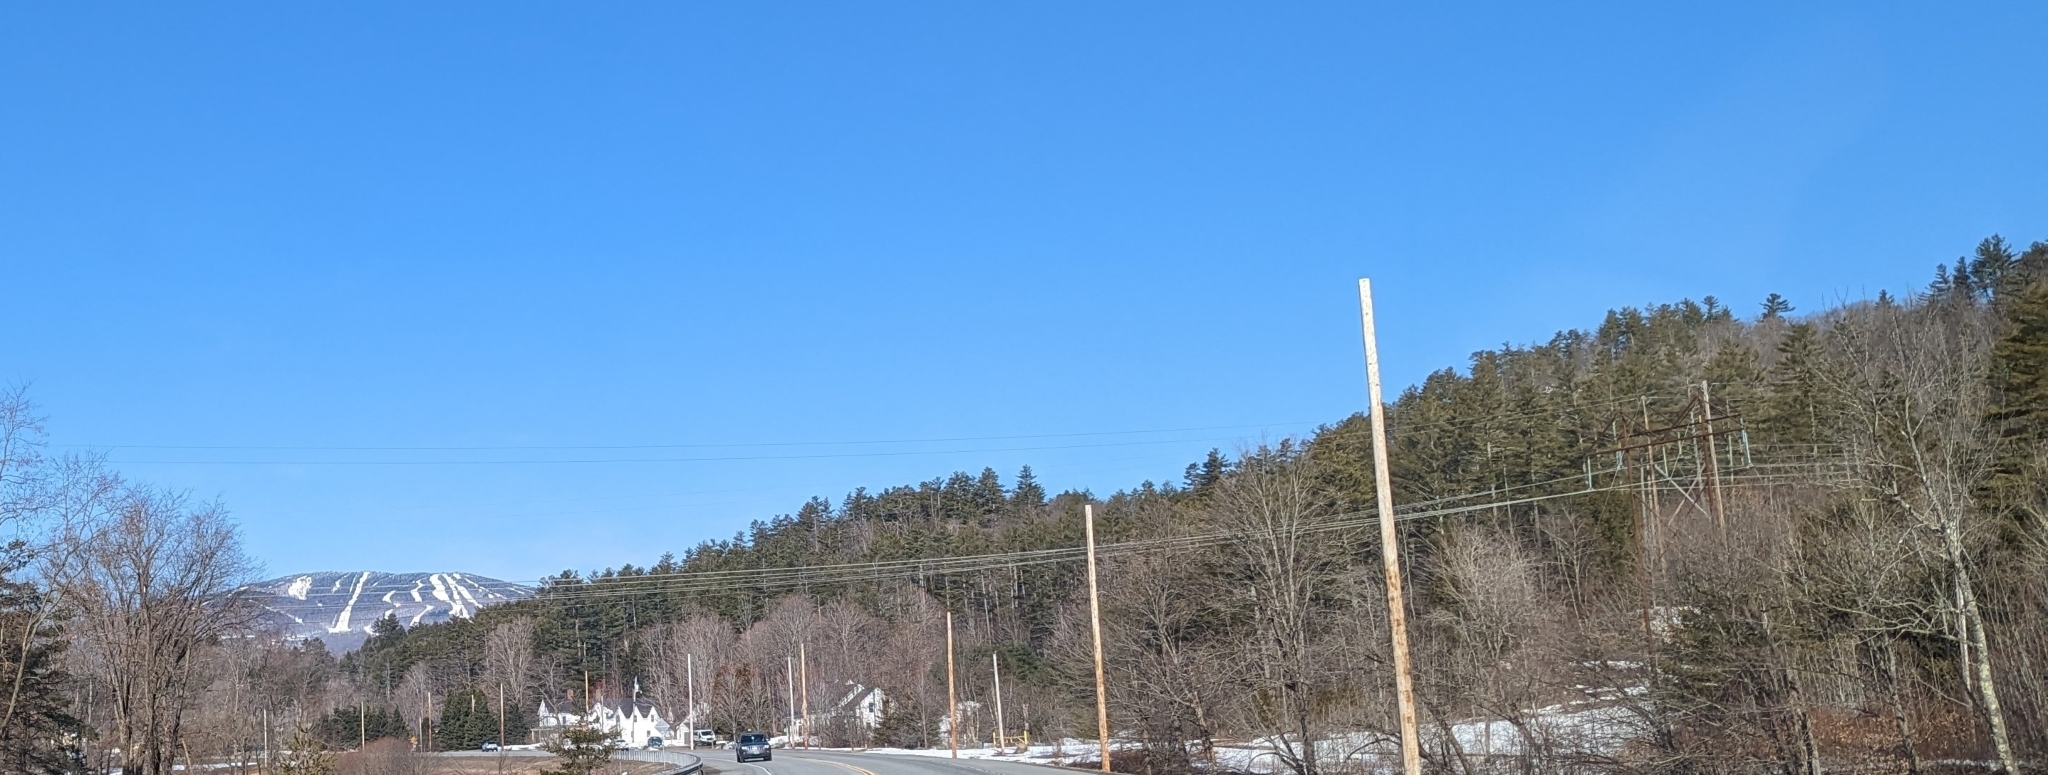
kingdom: Plantae
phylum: Tracheophyta
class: Pinopsida
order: Pinales
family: Pinaceae
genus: Pinus
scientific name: Pinus strobus
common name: Weymouth pine
